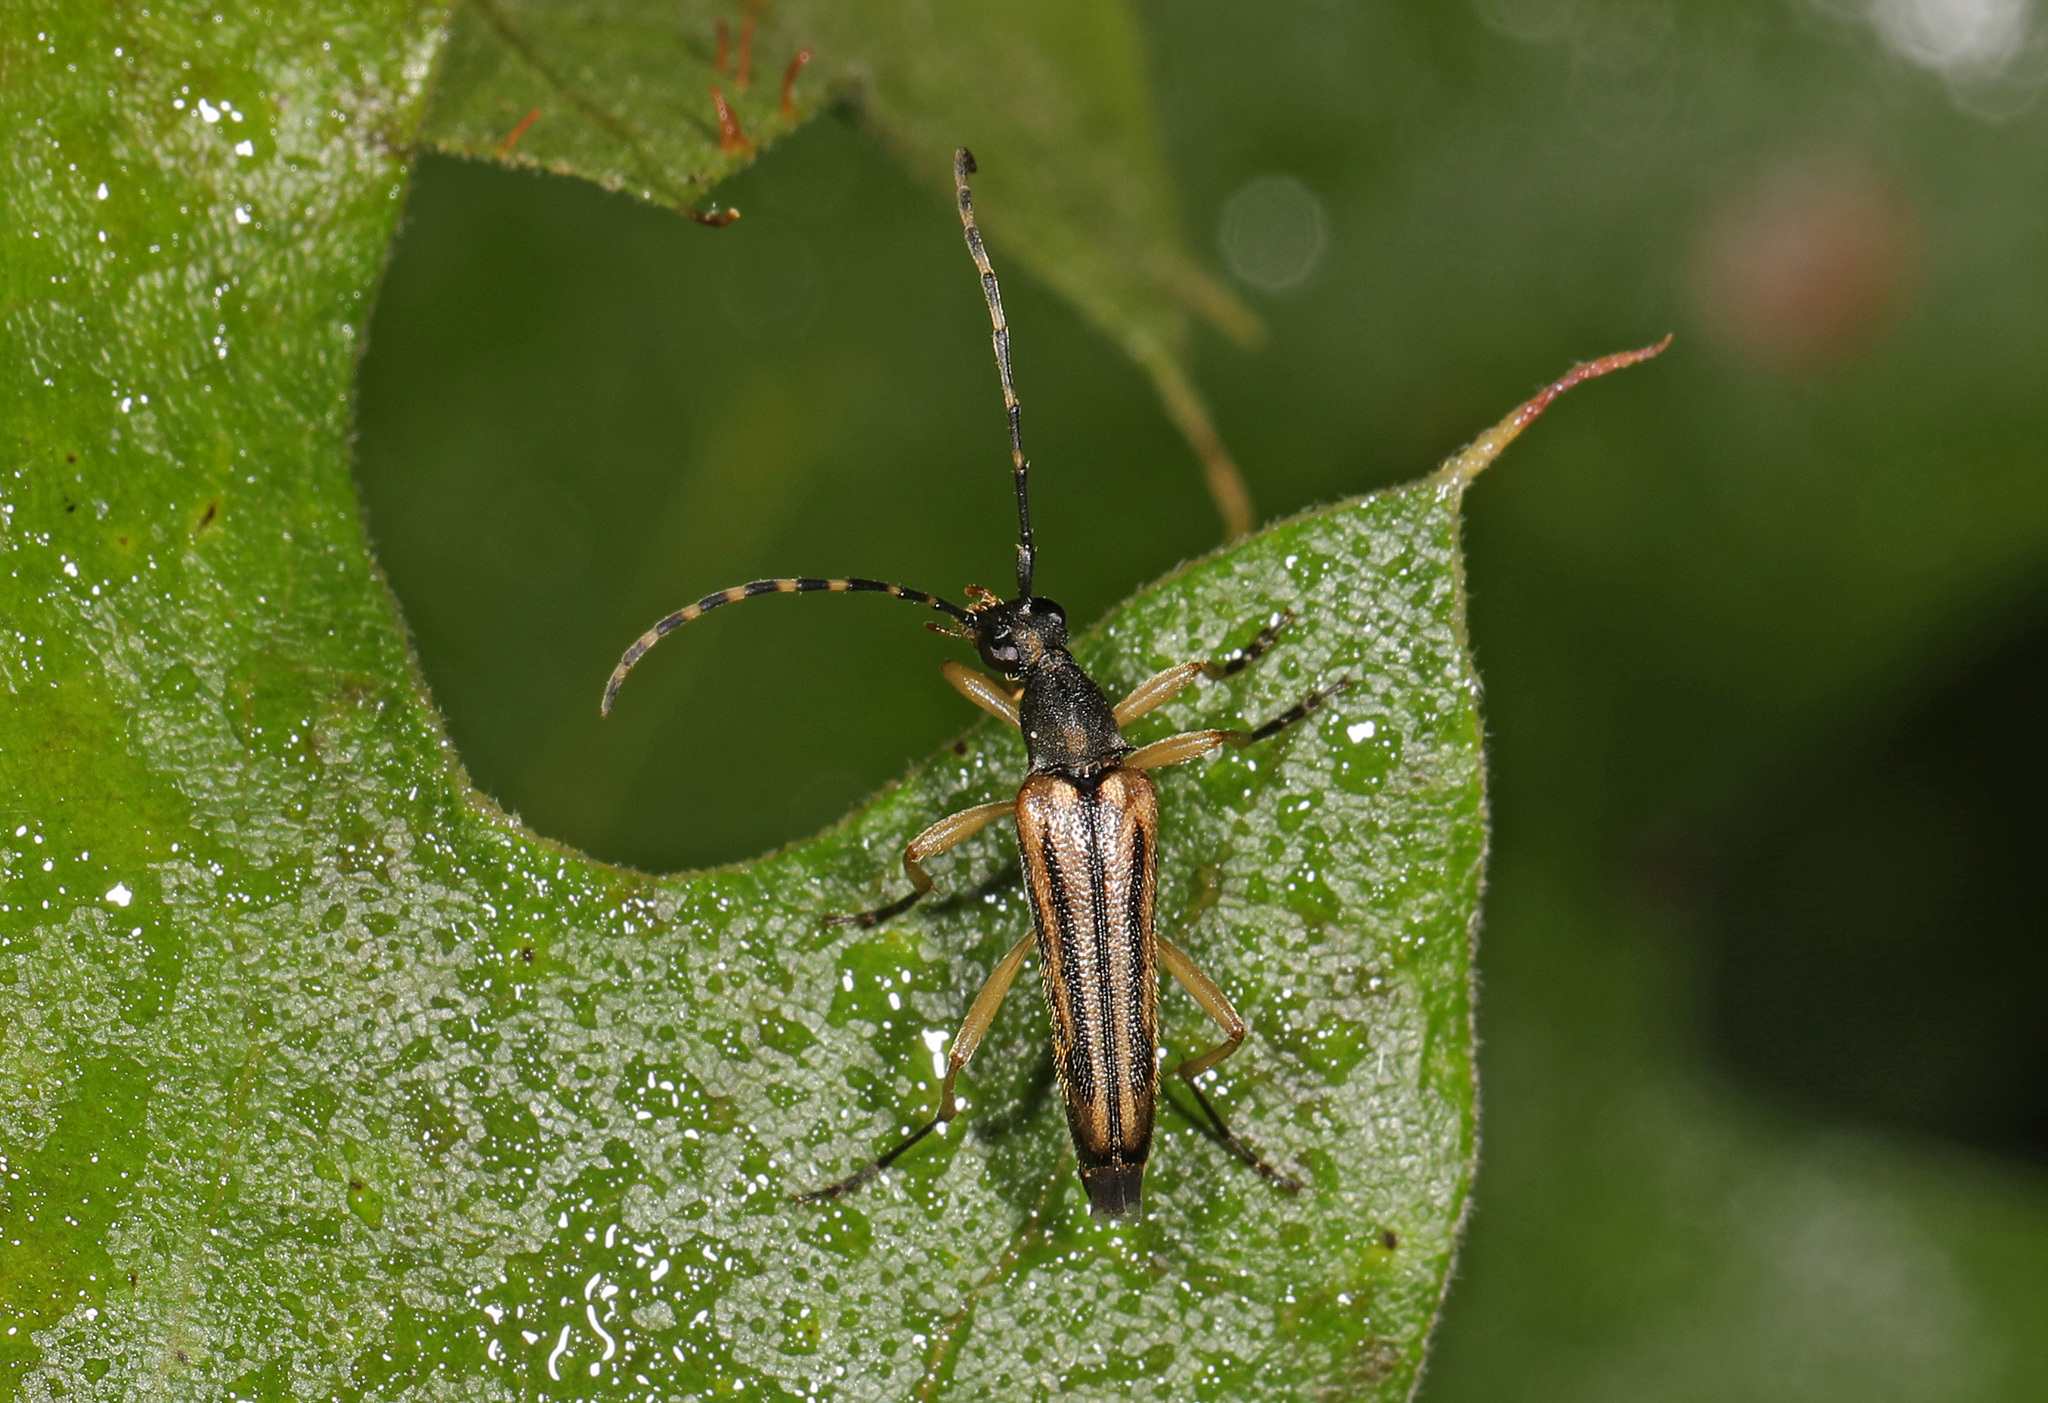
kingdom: Animalia
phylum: Arthropoda
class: Insecta
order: Coleoptera
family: Cerambycidae
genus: Analeptura
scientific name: Analeptura lineola
